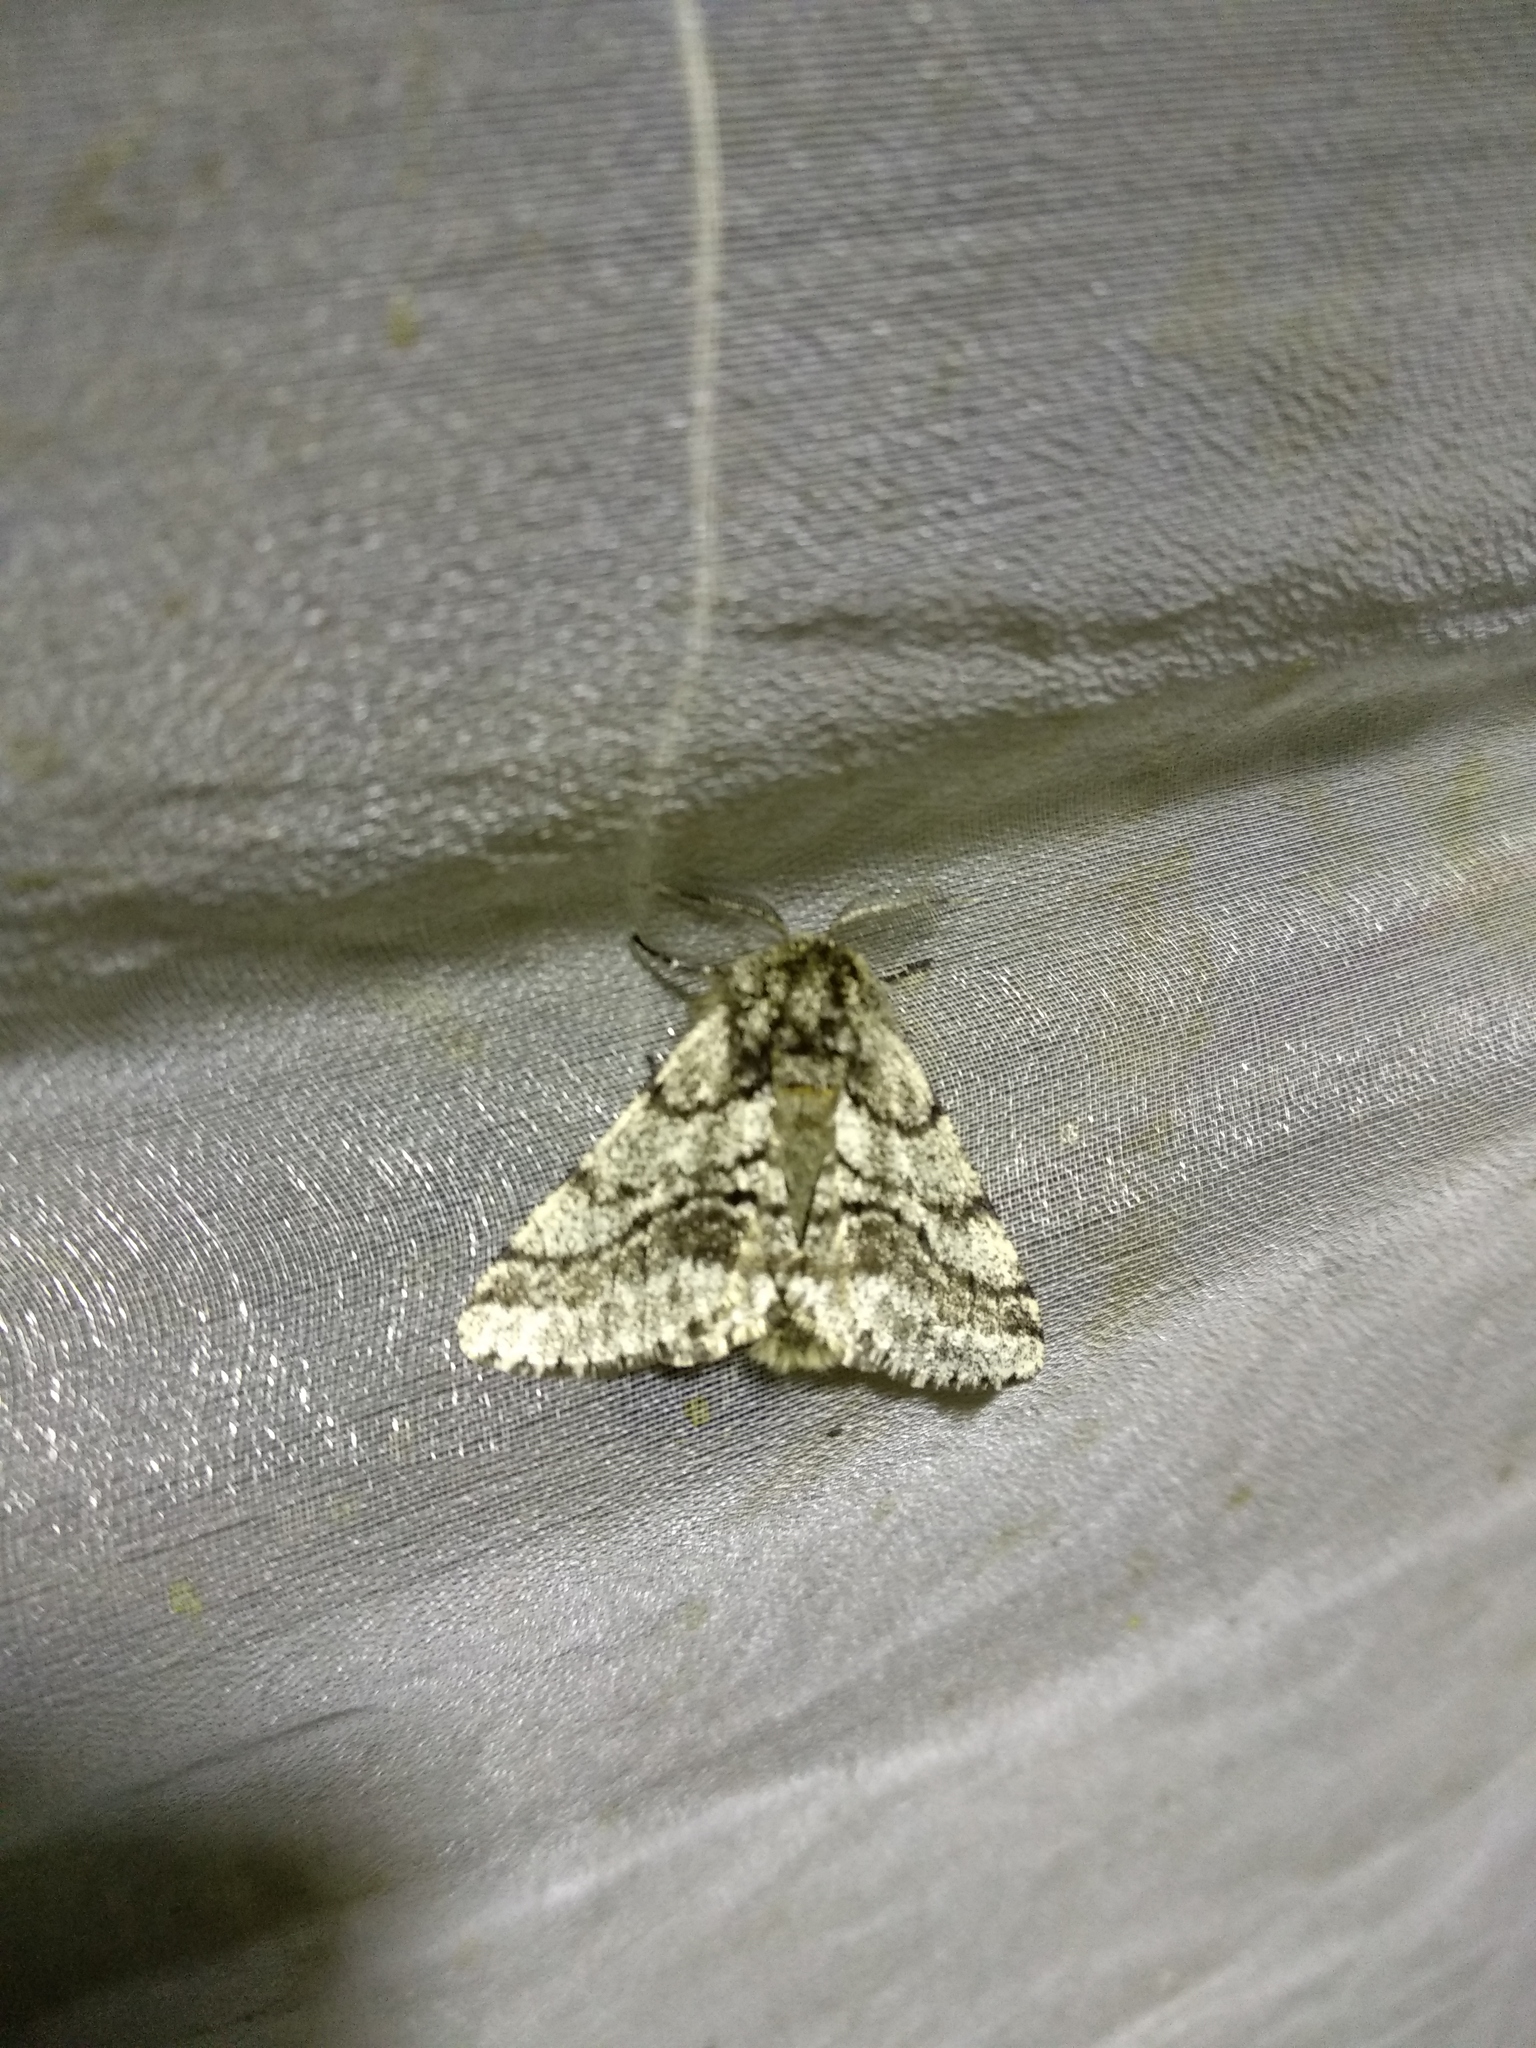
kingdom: Animalia
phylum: Arthropoda
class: Insecta
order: Lepidoptera
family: Geometridae
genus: Lycia
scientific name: Lycia hirtaria
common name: Brindled beauty
